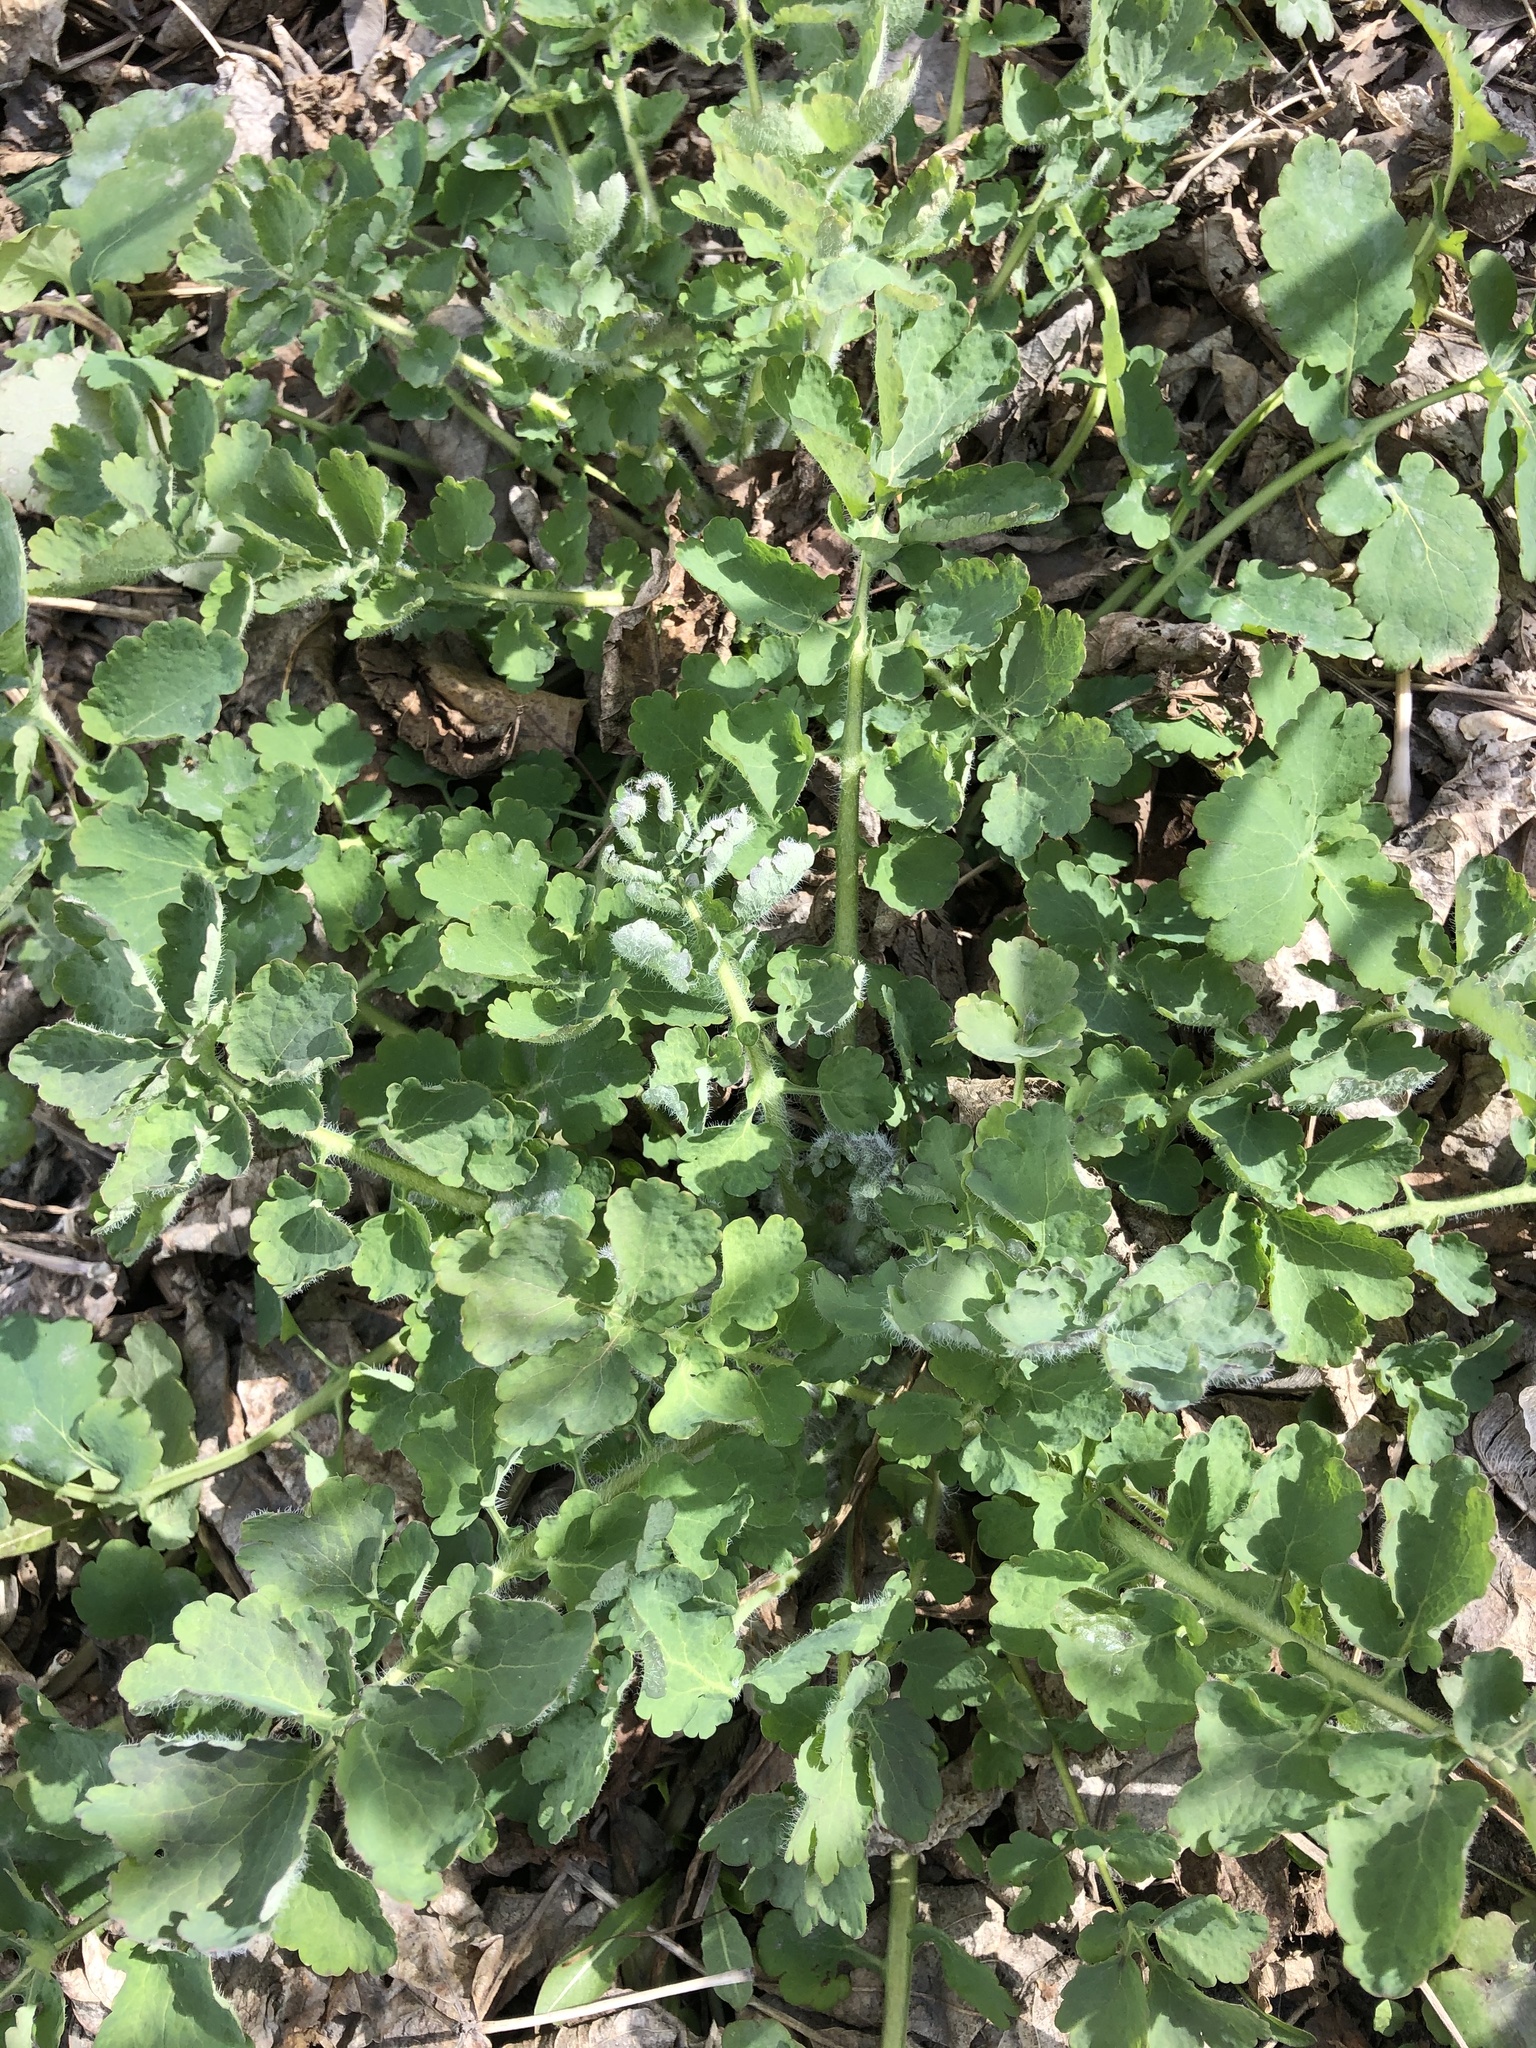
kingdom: Plantae
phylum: Tracheophyta
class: Magnoliopsida
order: Ranunculales
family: Papaveraceae
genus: Chelidonium
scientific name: Chelidonium majus
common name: Greater celandine
